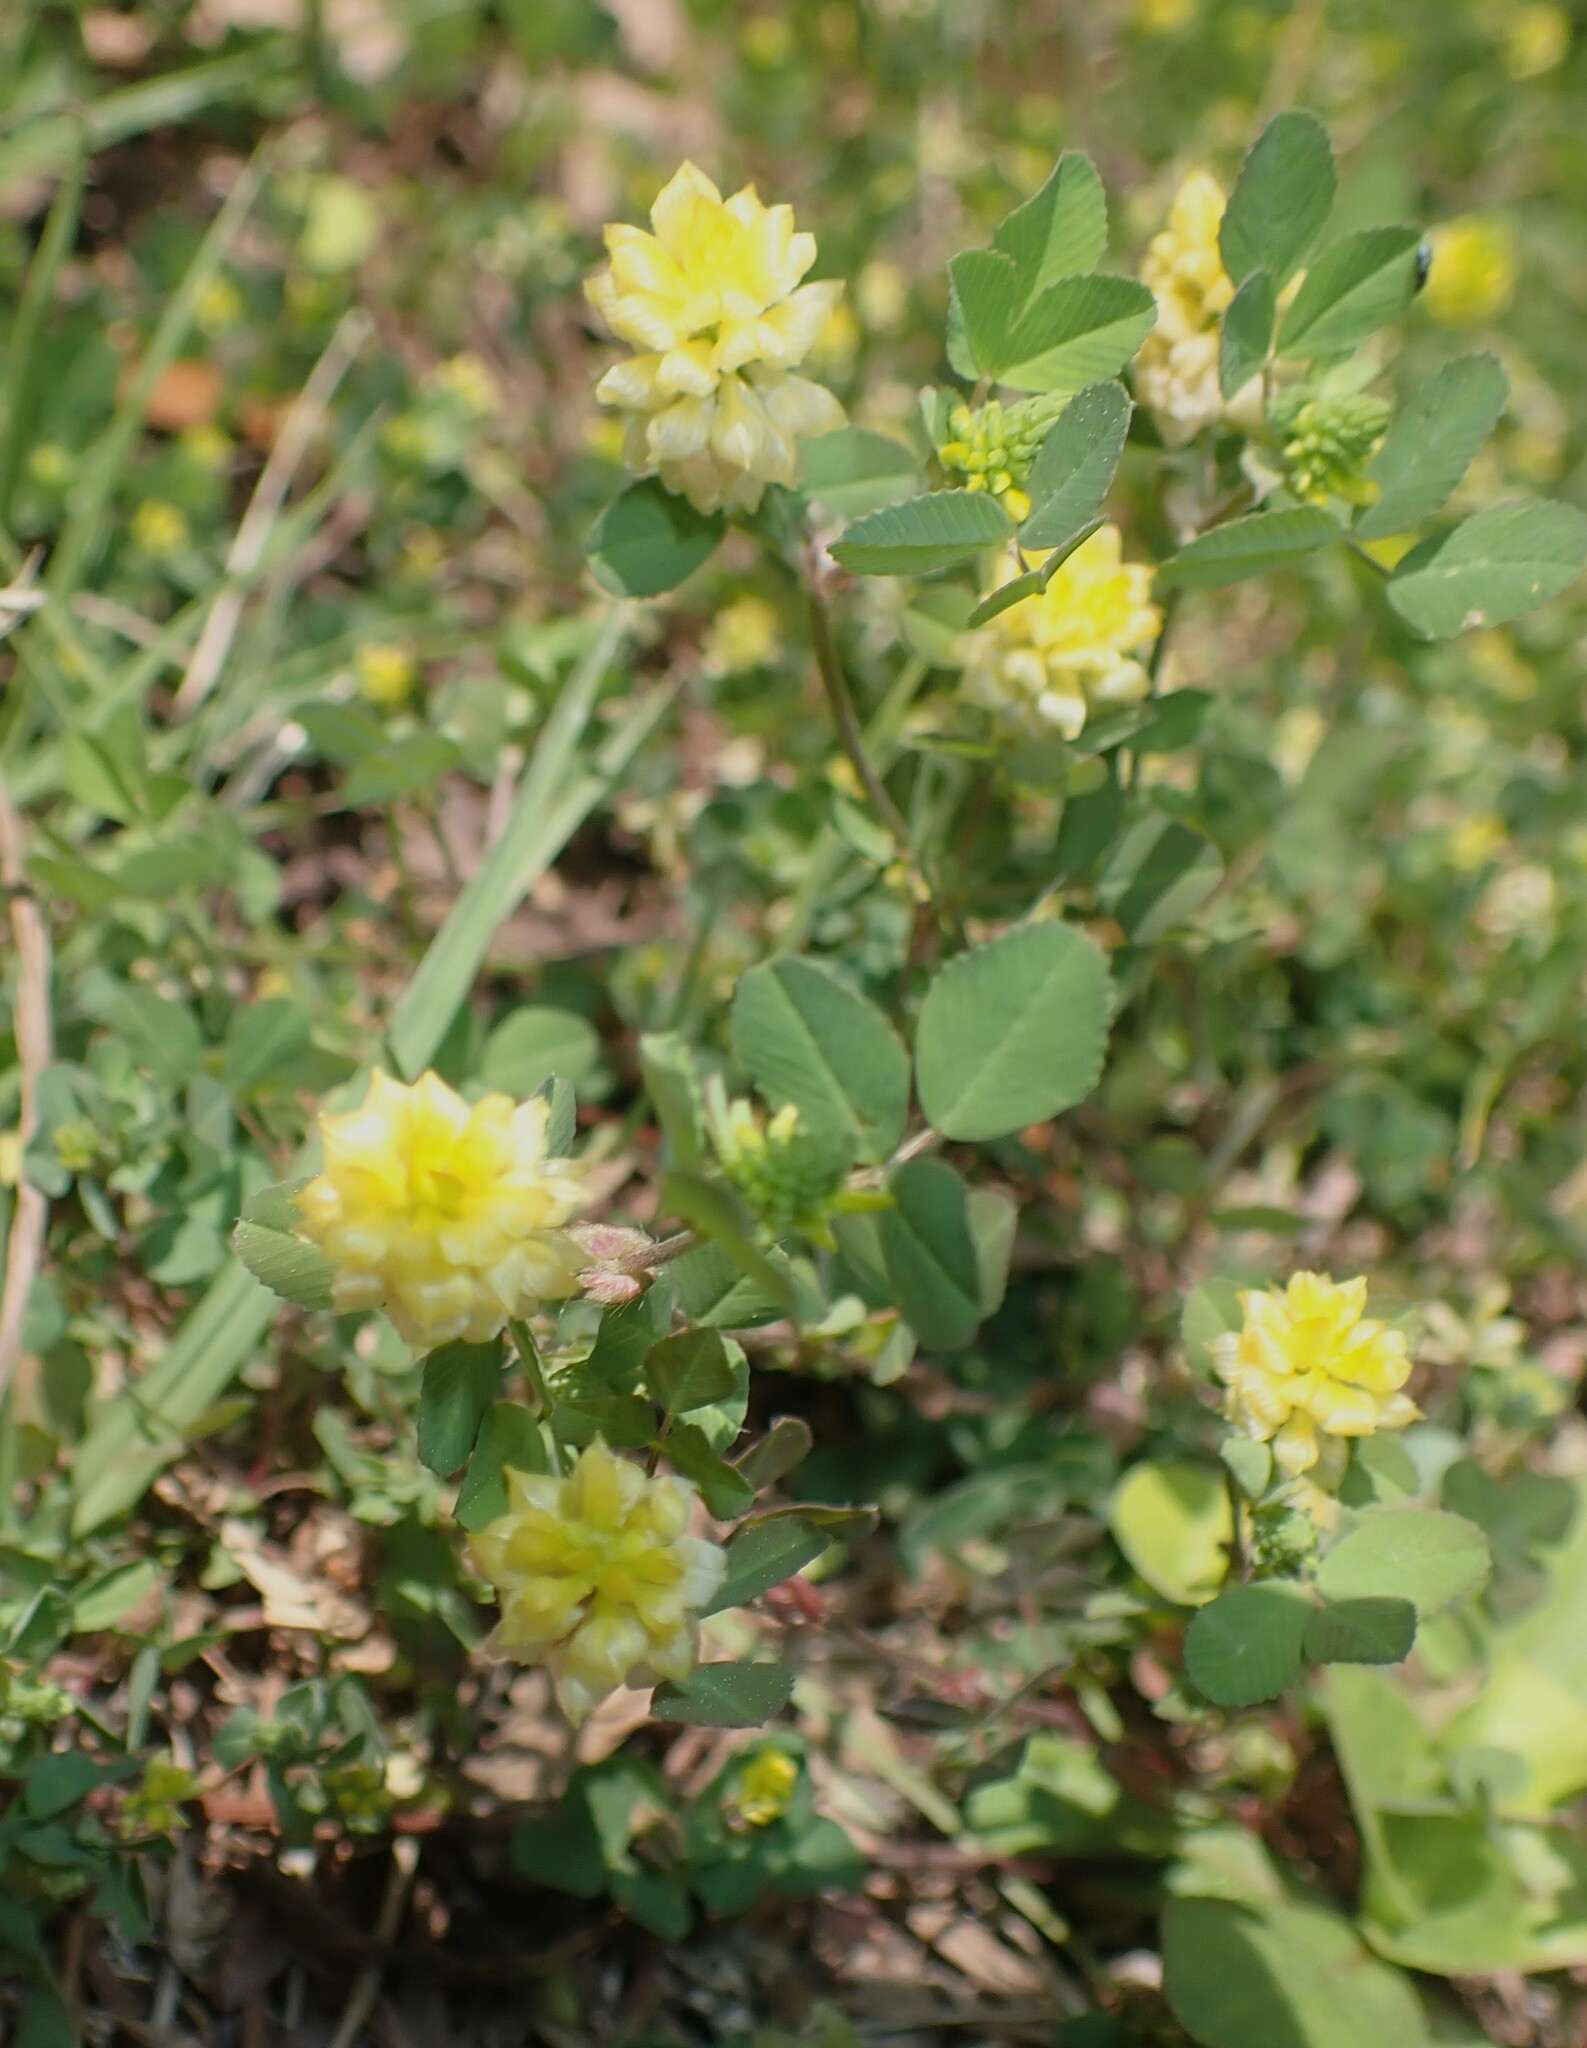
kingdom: Plantae
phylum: Tracheophyta
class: Magnoliopsida
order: Fabales
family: Fabaceae
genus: Trifolium
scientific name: Trifolium campestre
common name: Field clover
